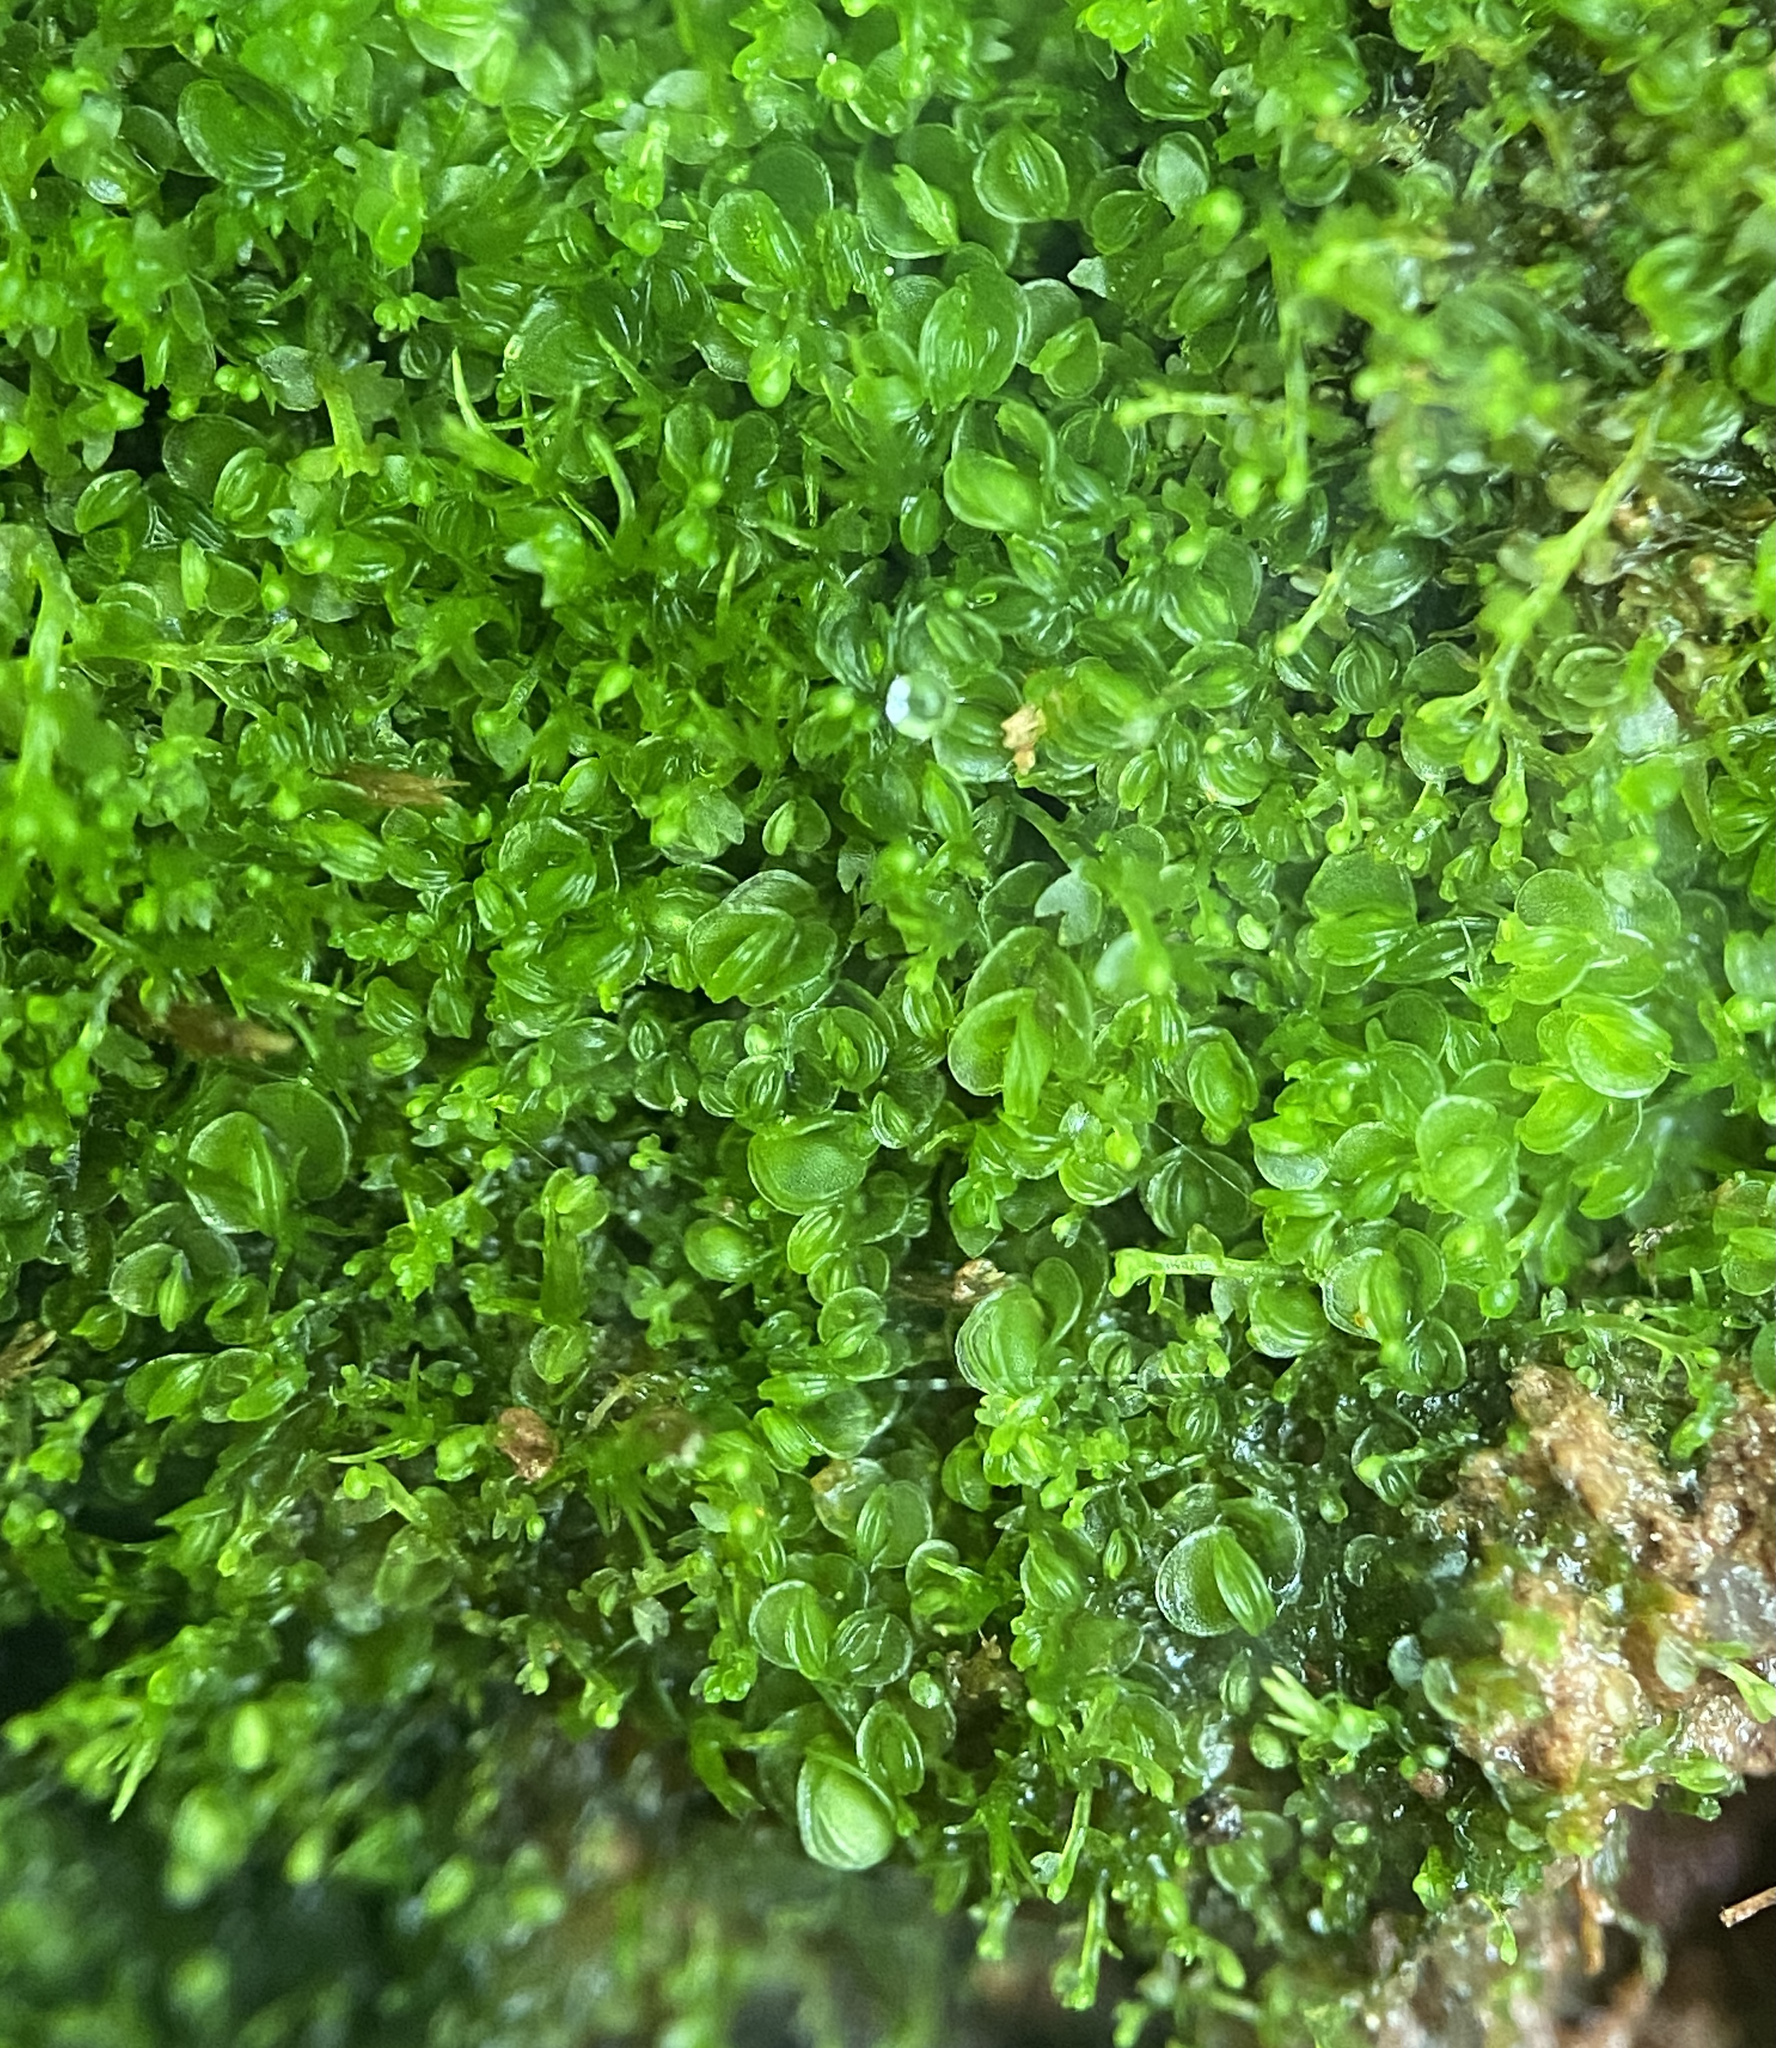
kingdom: Plantae
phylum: Marchantiophyta
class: Jungermanniopsida
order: Jungermanniales
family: Solenostomataceae
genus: Solenostoma
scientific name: Solenostoma gracillimum
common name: Crenulated flapwort
